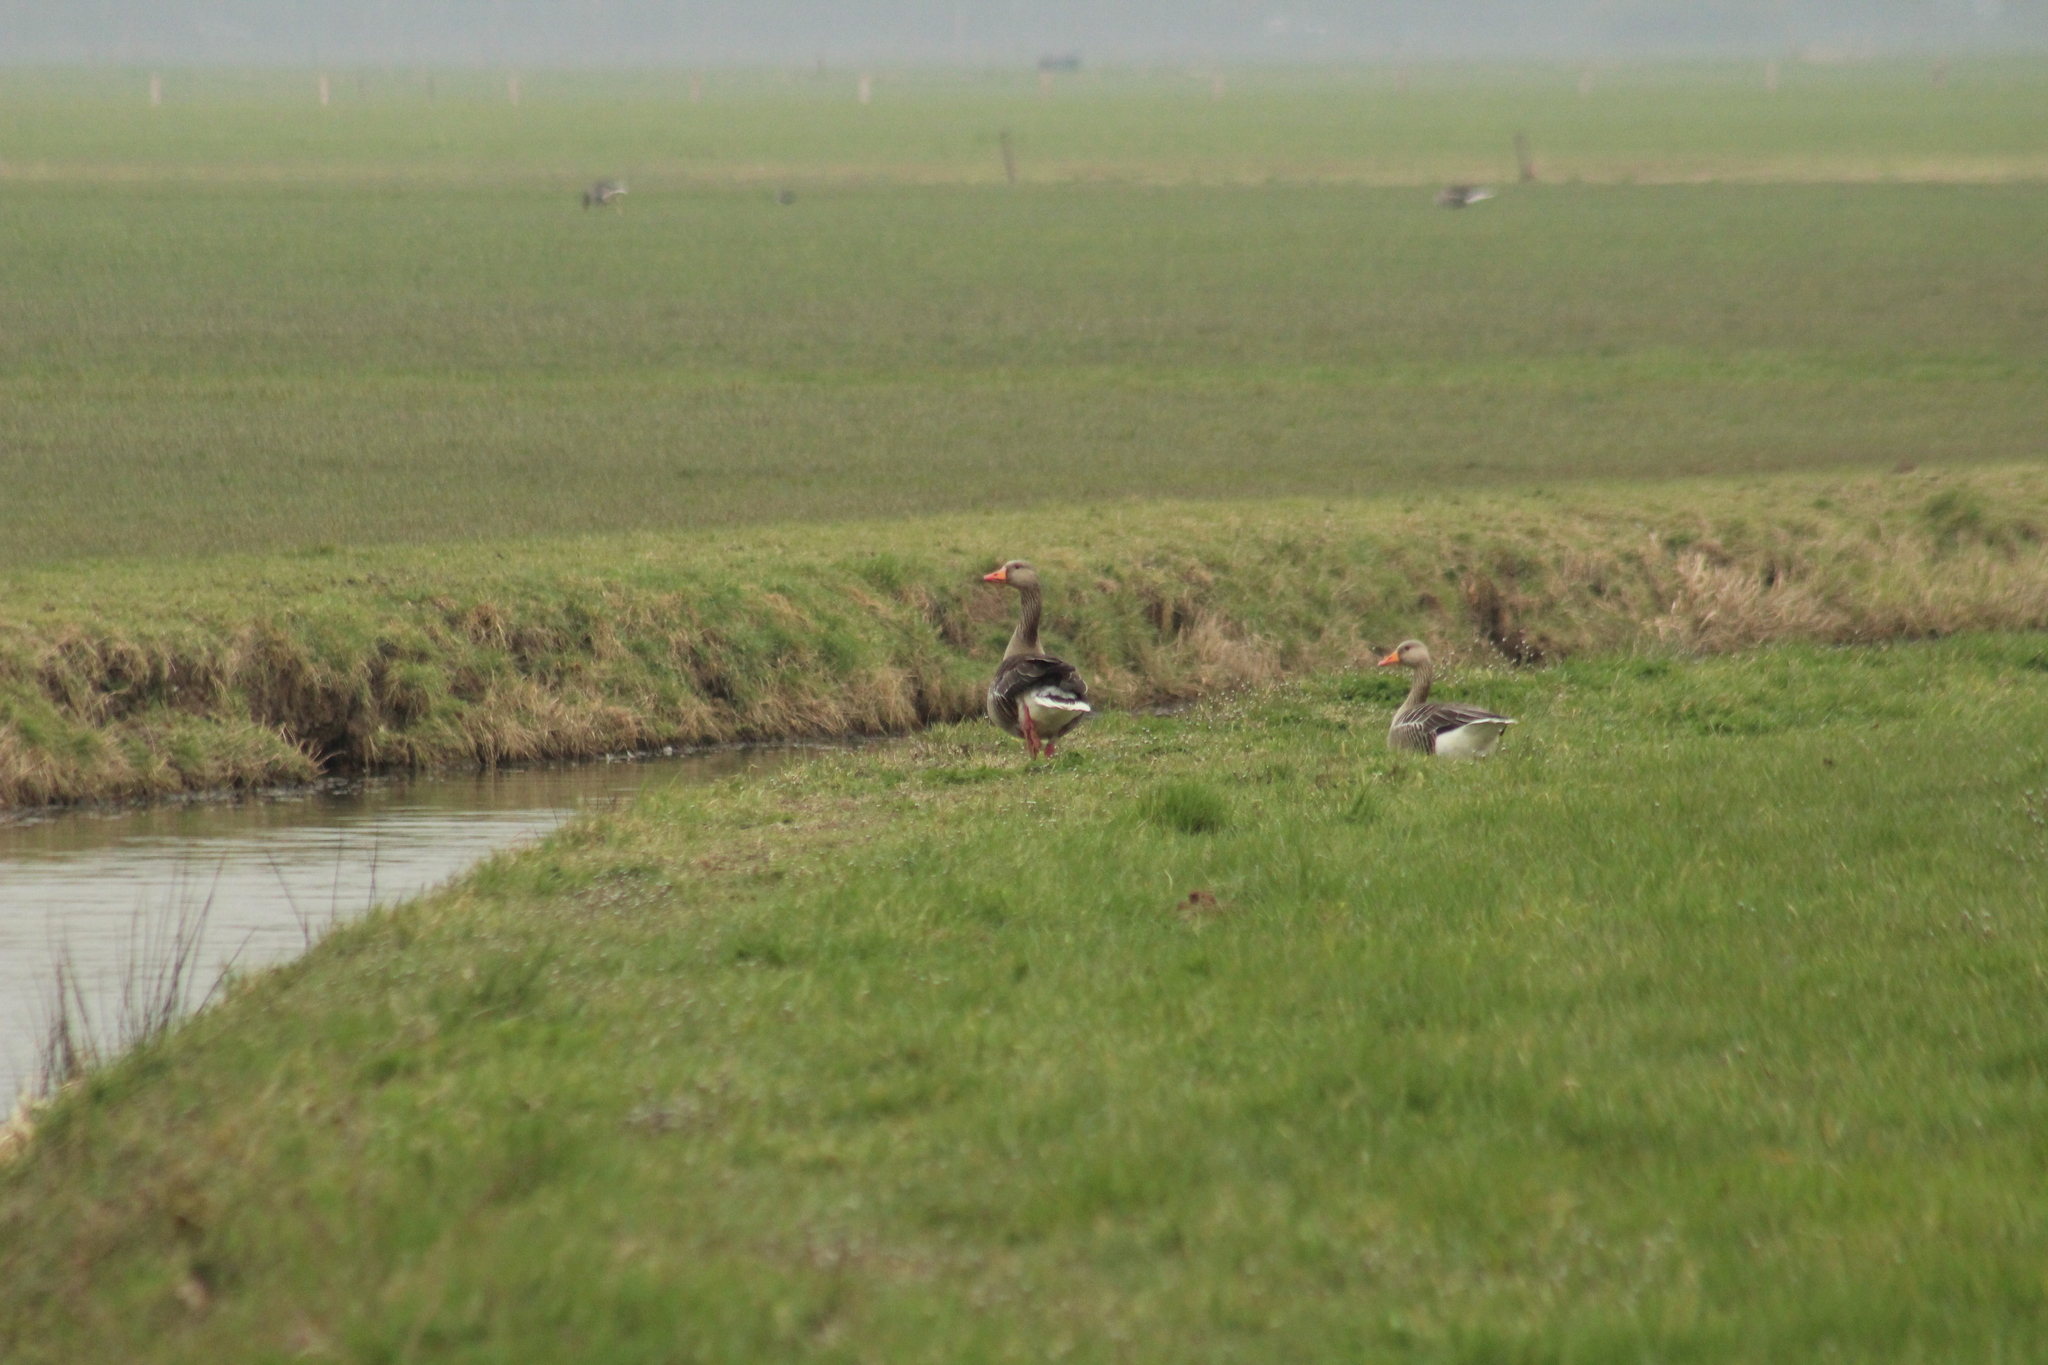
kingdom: Animalia
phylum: Chordata
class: Aves
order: Anseriformes
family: Anatidae
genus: Anser
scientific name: Anser anser
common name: Greylag goose
